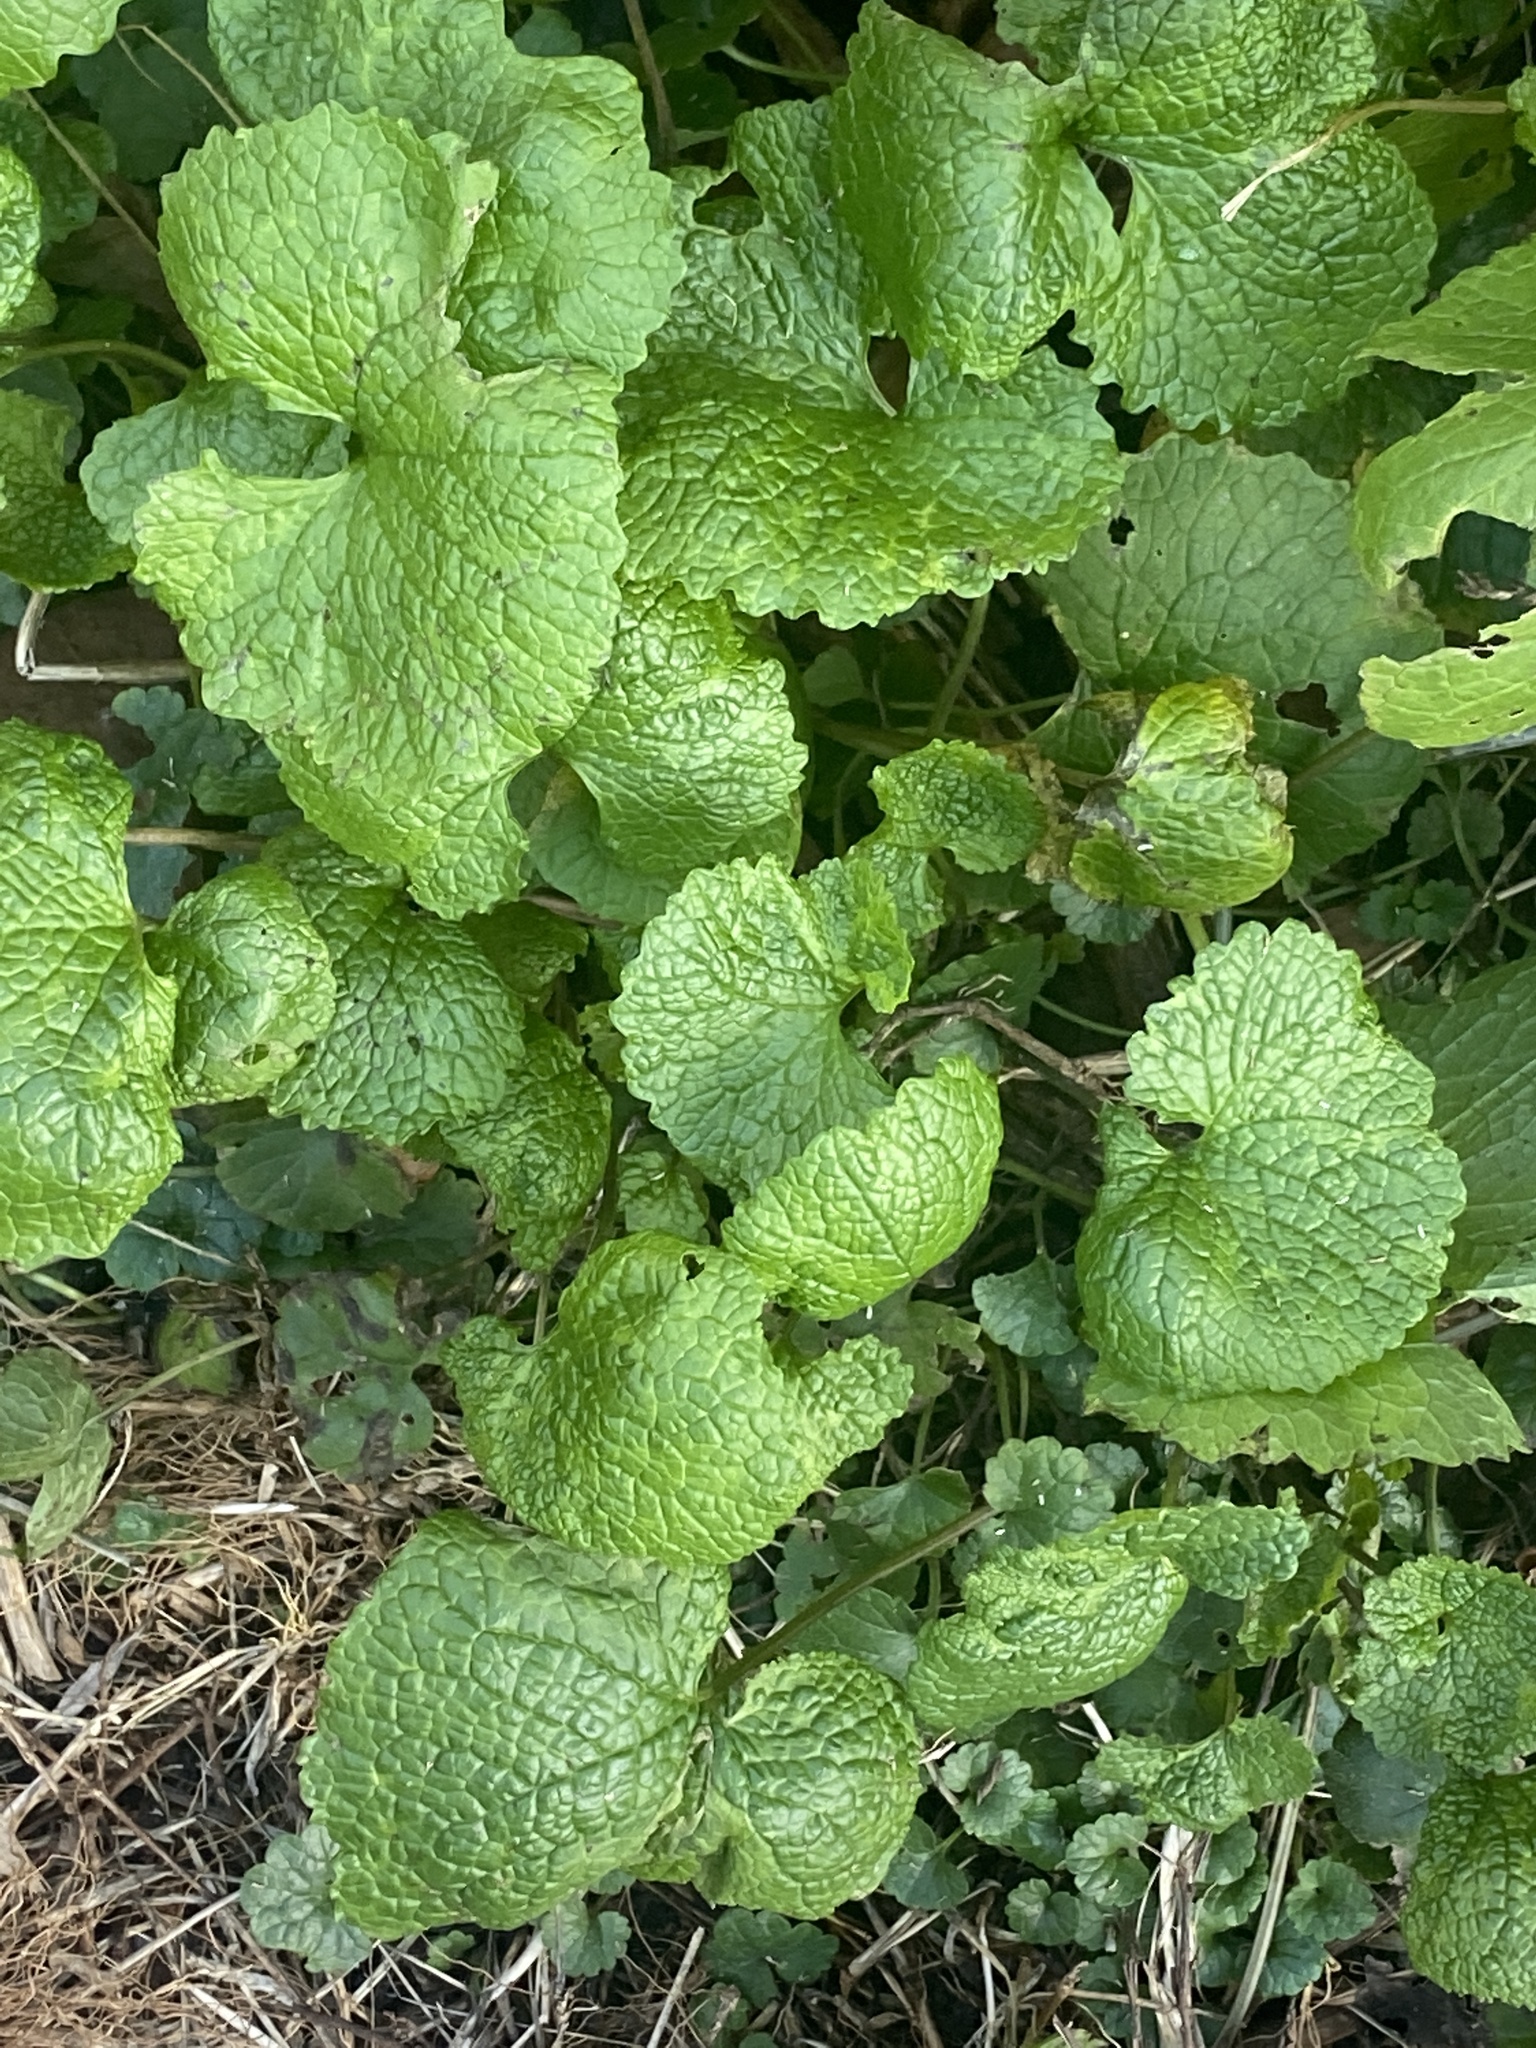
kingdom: Plantae
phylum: Tracheophyta
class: Magnoliopsida
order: Brassicales
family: Brassicaceae
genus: Alliaria
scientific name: Alliaria petiolata
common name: Garlic mustard
